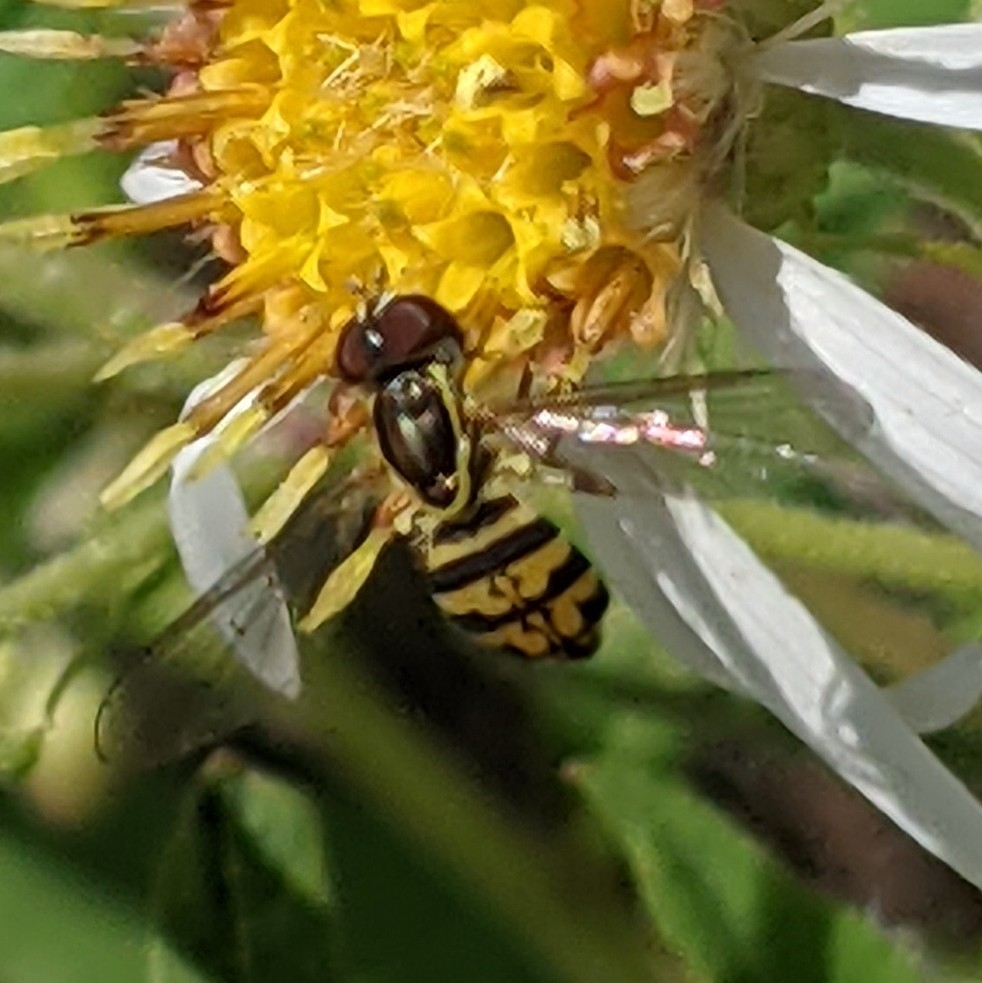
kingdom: Animalia
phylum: Arthropoda
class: Insecta
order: Diptera
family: Syrphidae
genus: Toxomerus
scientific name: Toxomerus geminatus
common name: Eastern calligrapher
